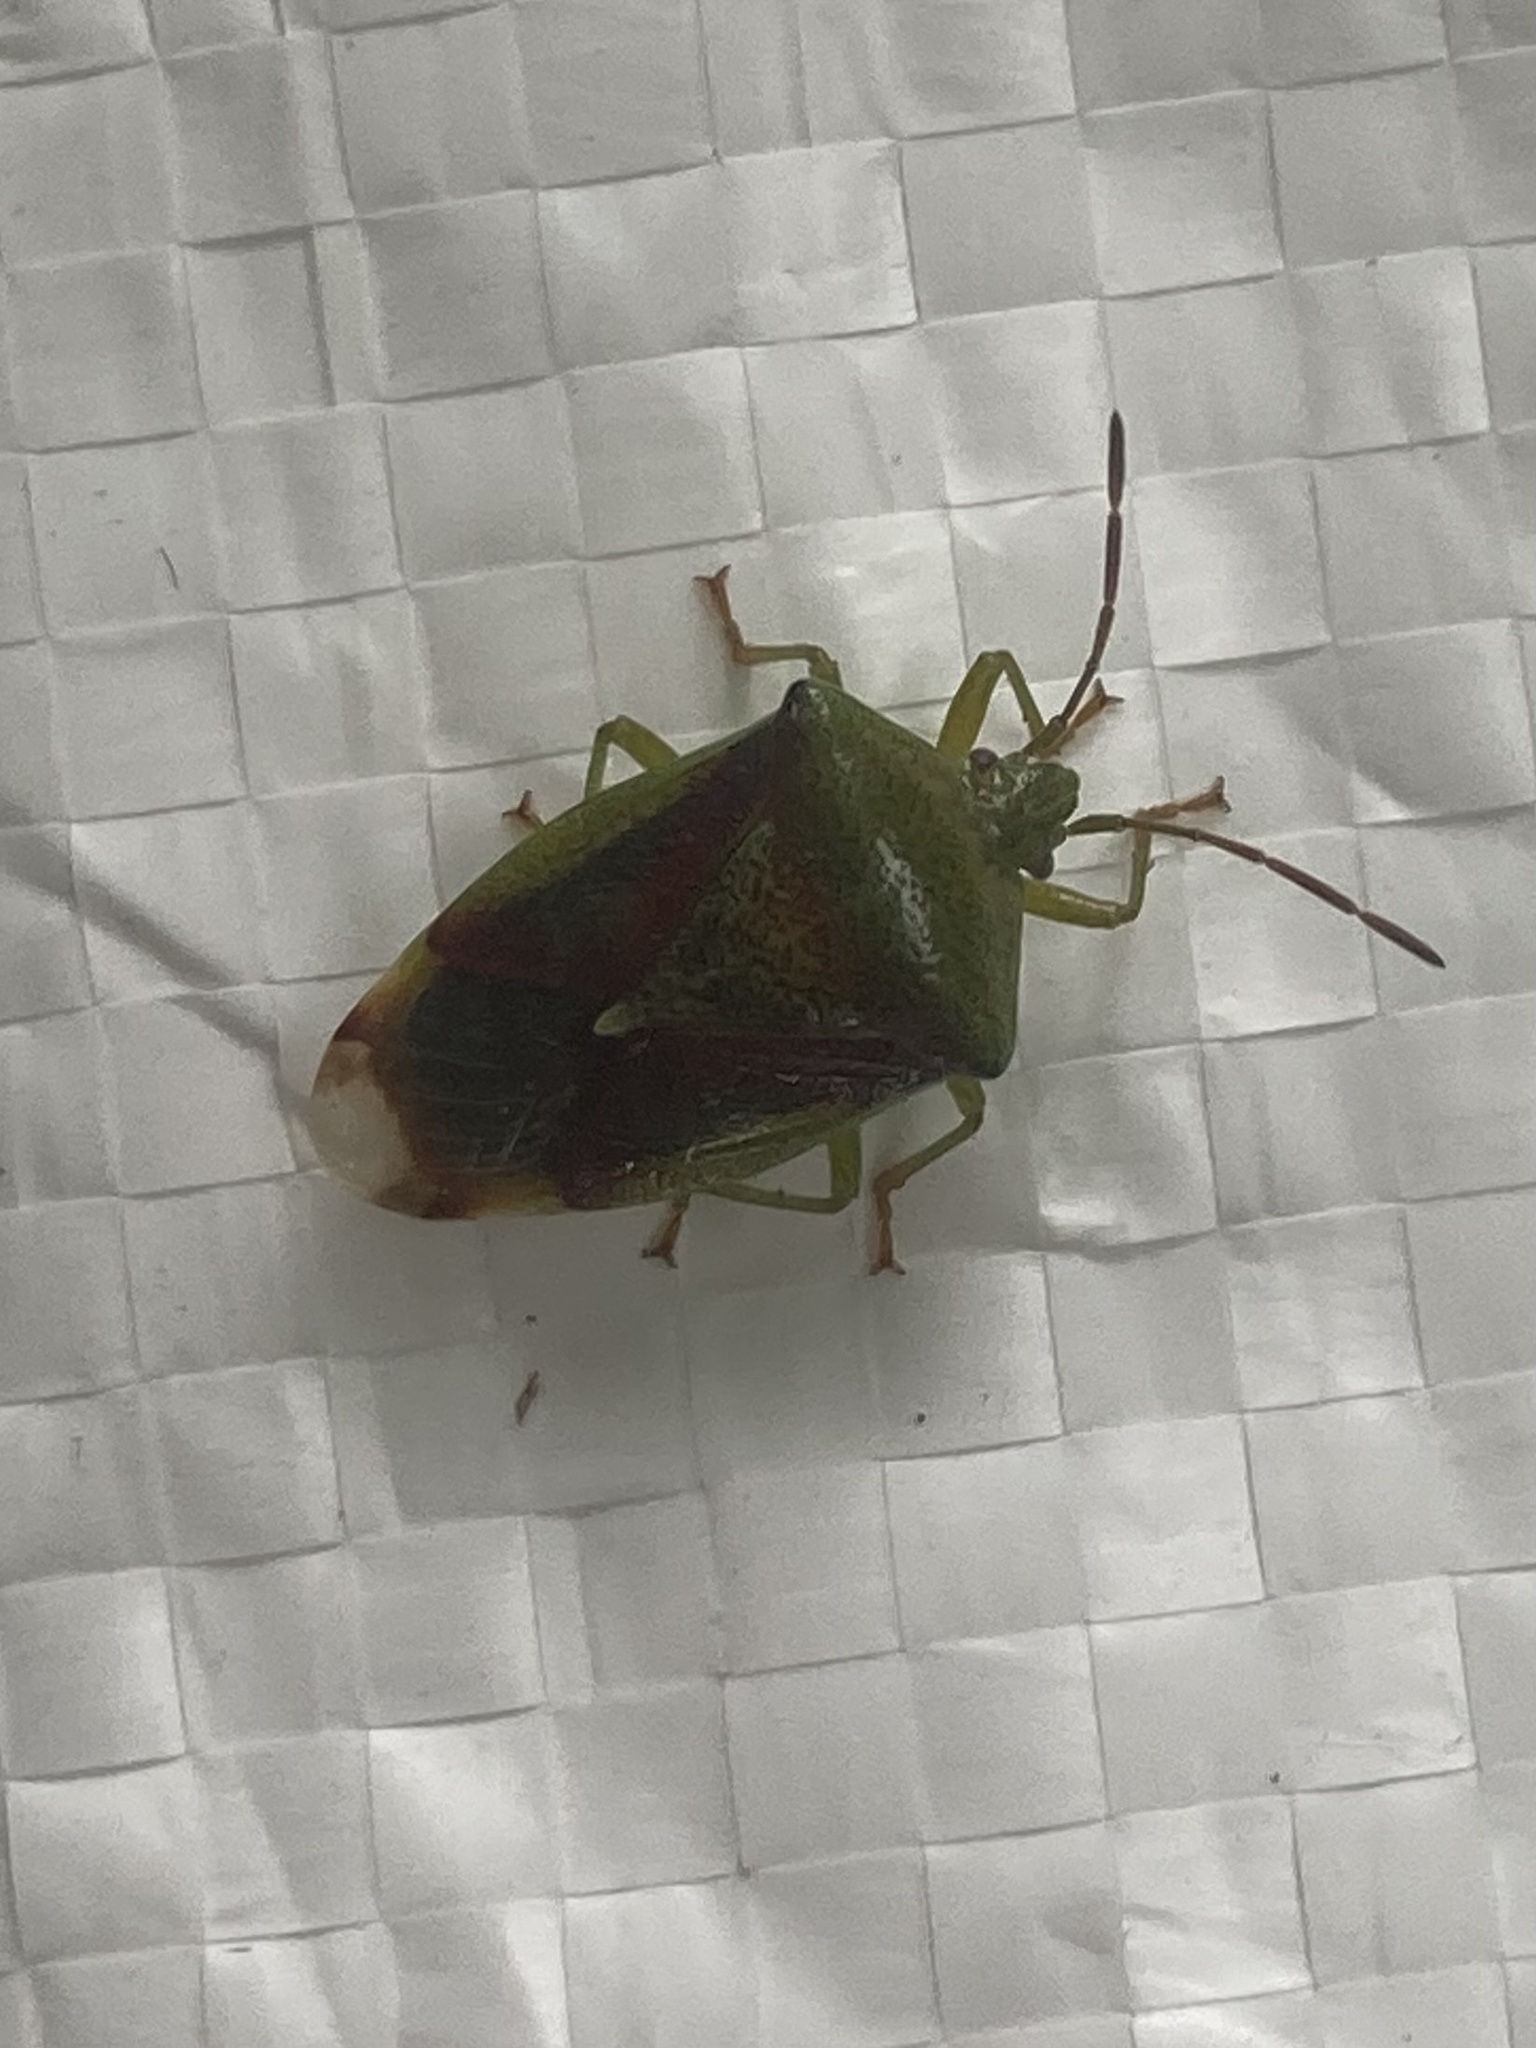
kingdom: Animalia
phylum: Arthropoda
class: Insecta
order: Hemiptera
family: Acanthosomatidae
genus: Elasmostethus
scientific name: Elasmostethus interstinctus
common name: Birch shieldbug
